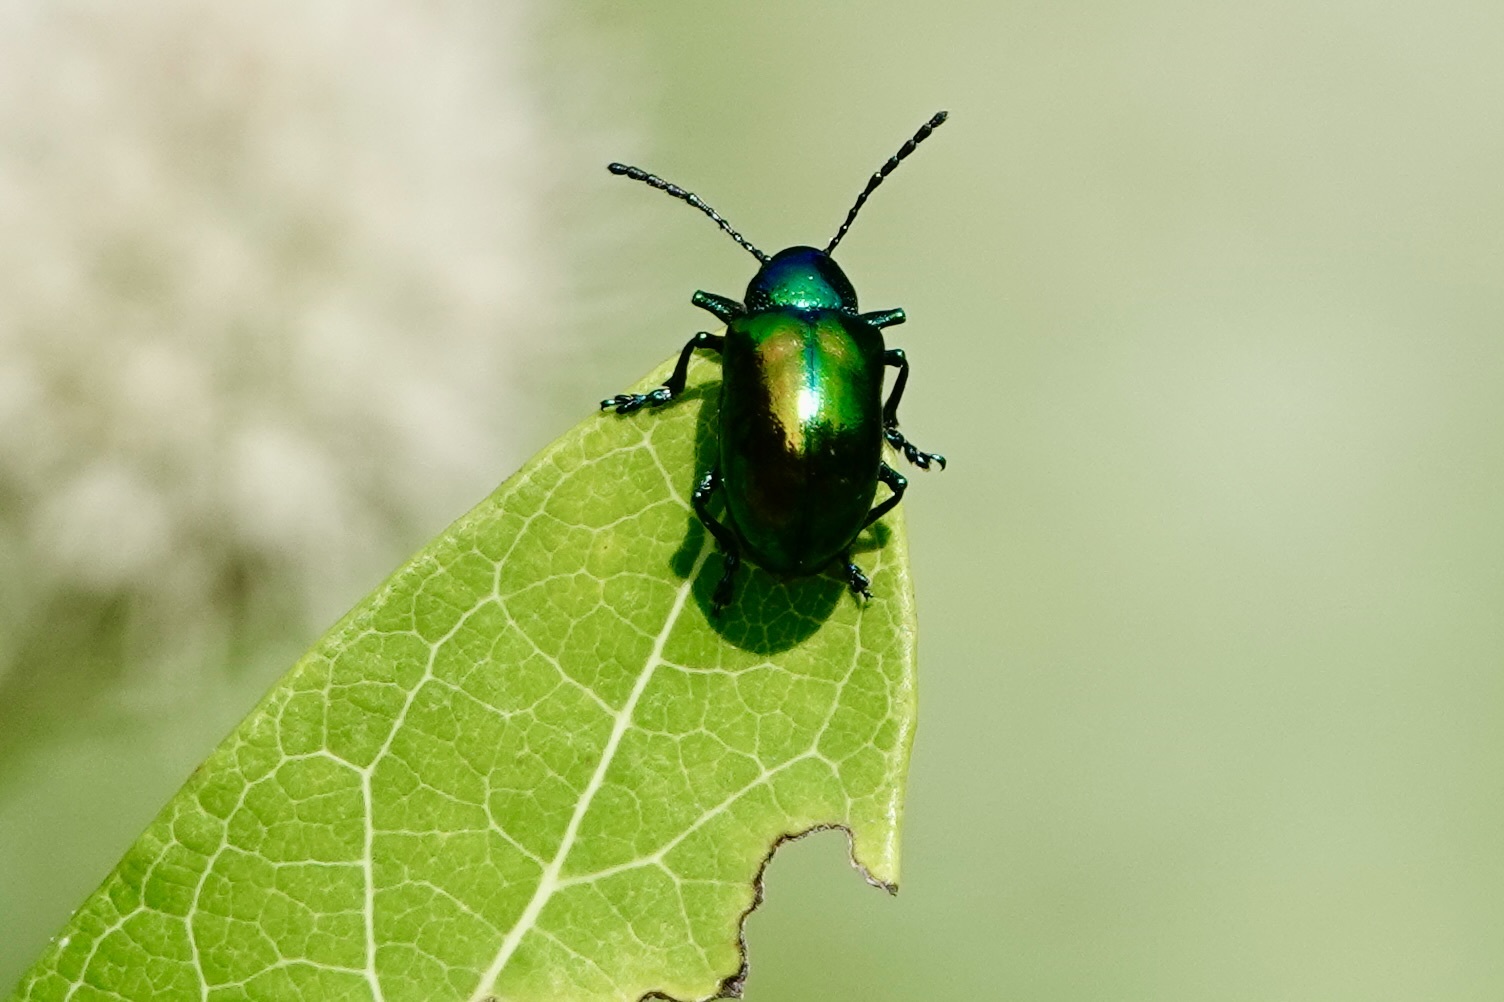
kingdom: Animalia
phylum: Arthropoda
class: Insecta
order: Coleoptera
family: Chrysomelidae
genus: Chrysochus
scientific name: Chrysochus auratus
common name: Dogbane leaf beetle
